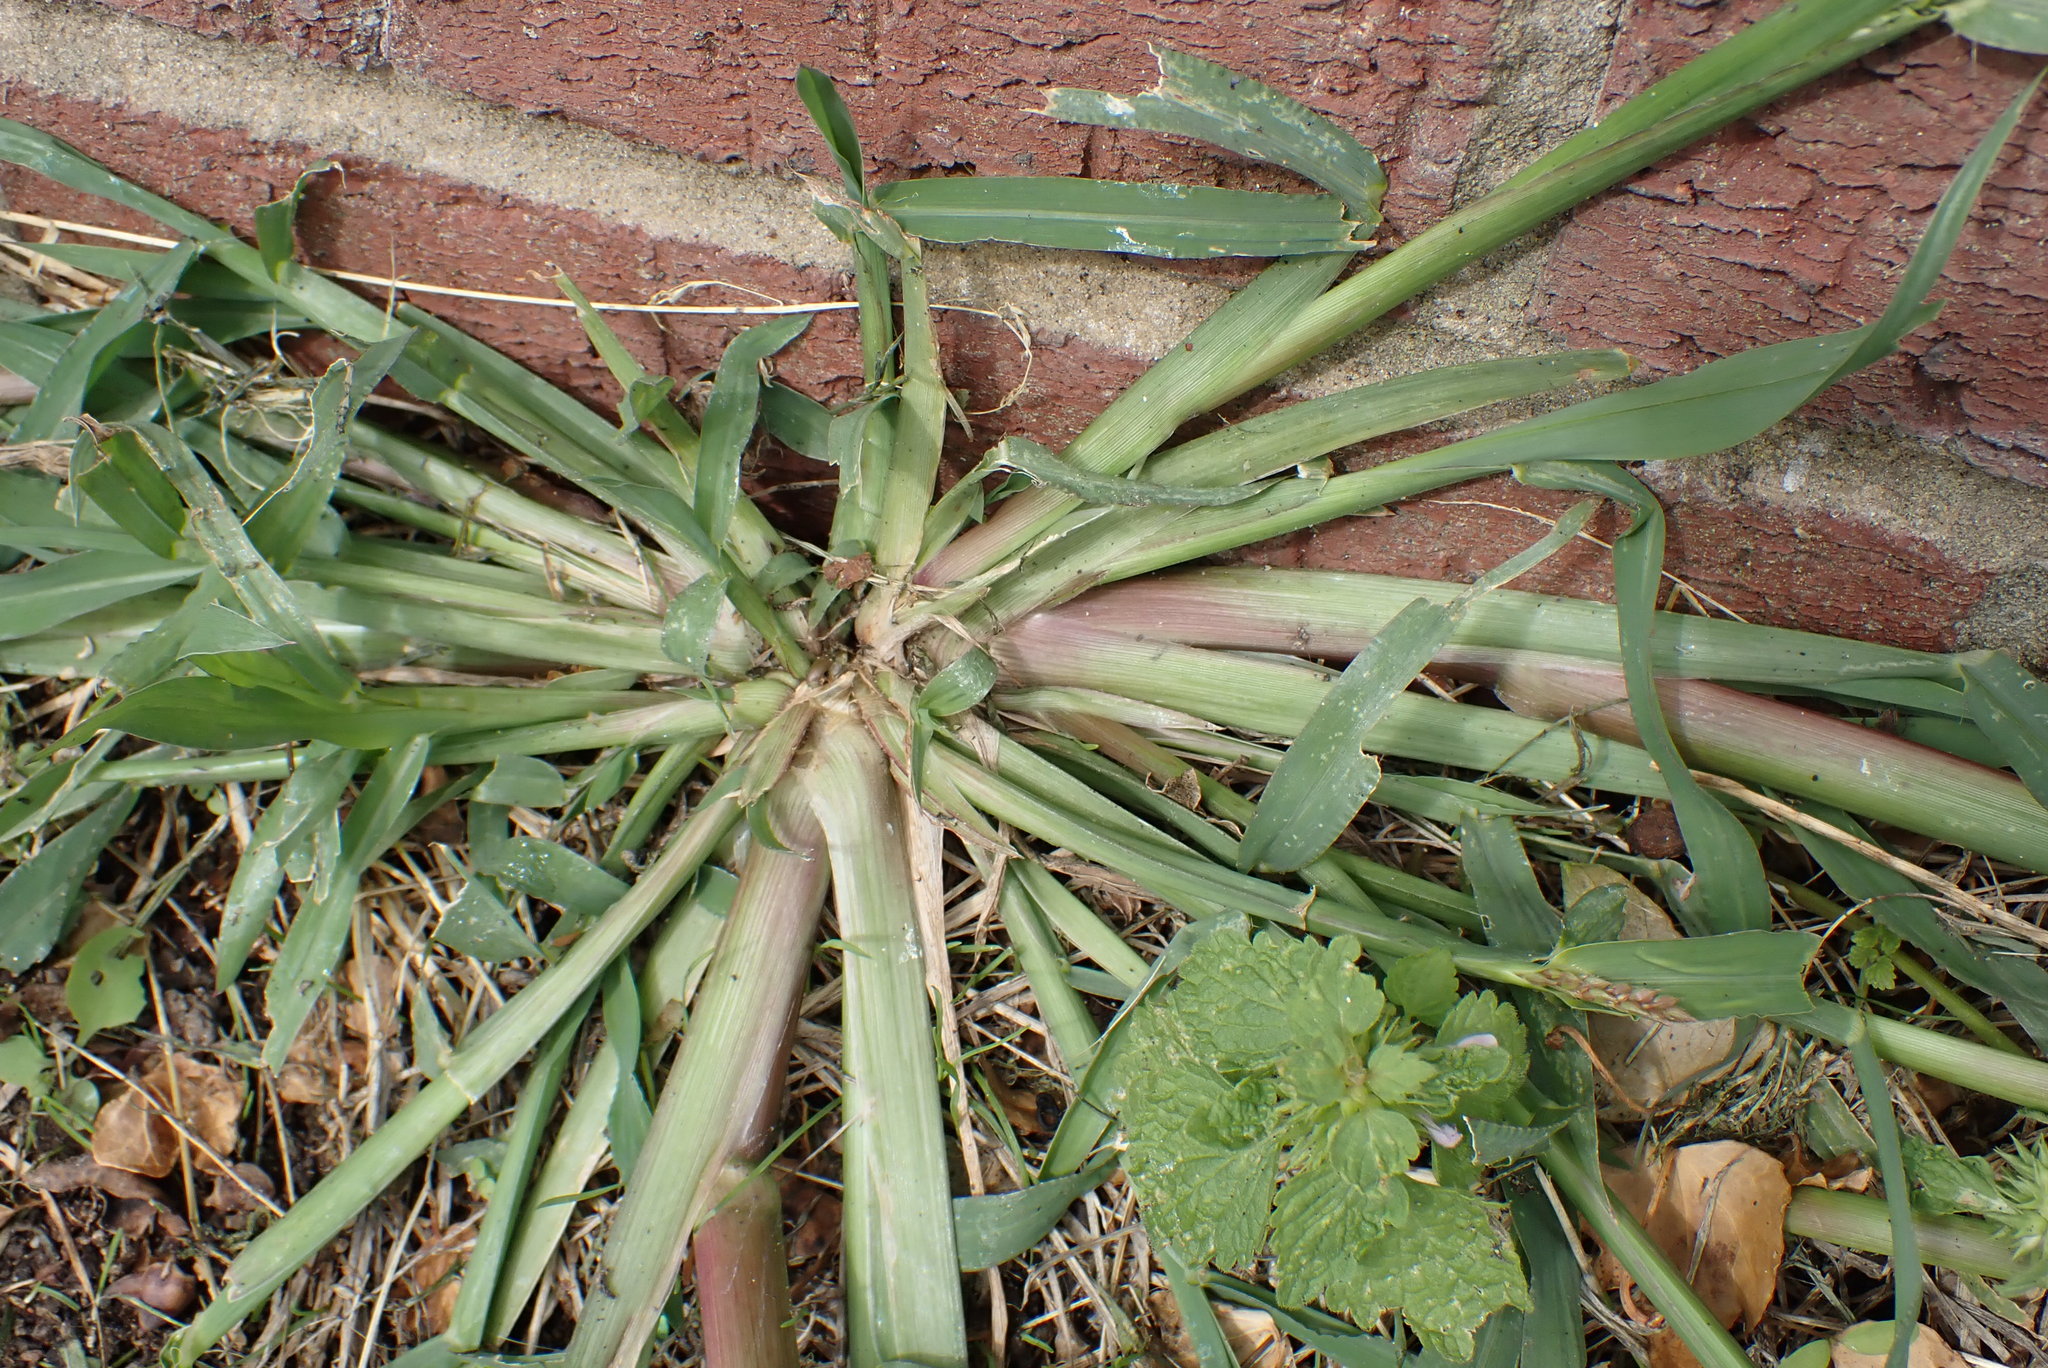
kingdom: Plantae
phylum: Tracheophyta
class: Liliopsida
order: Poales
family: Poaceae
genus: Echinochloa
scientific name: Echinochloa crus-galli
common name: Cockspur
